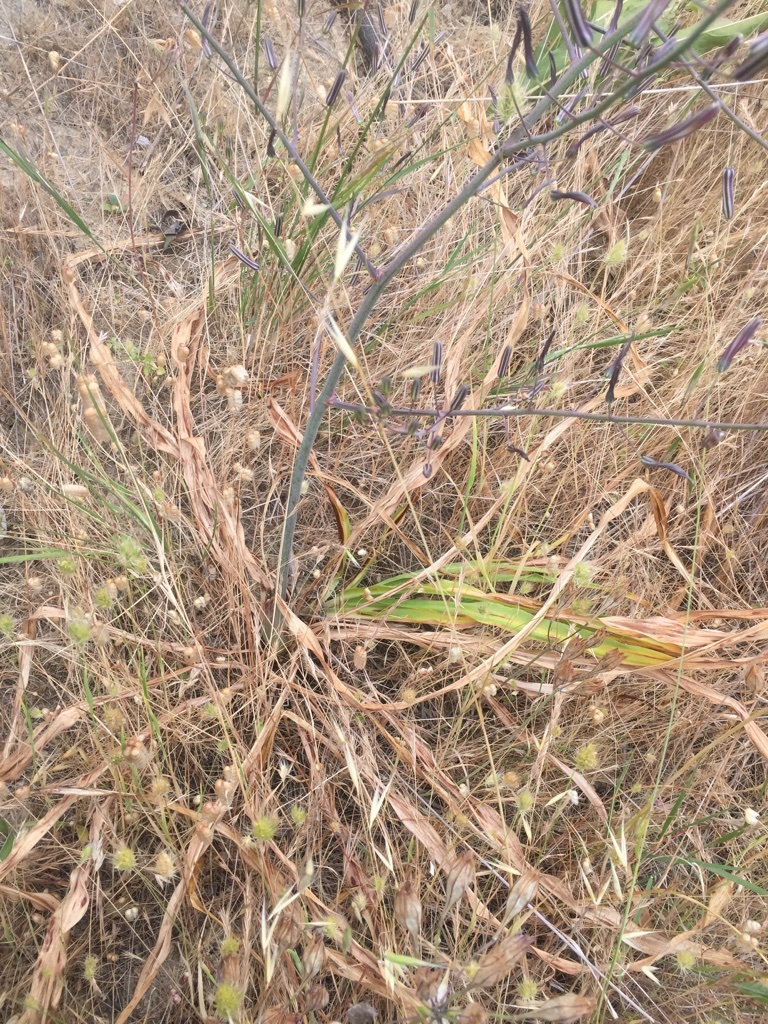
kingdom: Plantae
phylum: Tracheophyta
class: Liliopsida
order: Asparagales
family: Asparagaceae
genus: Chlorogalum
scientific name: Chlorogalum pomeridianum
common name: Amole
